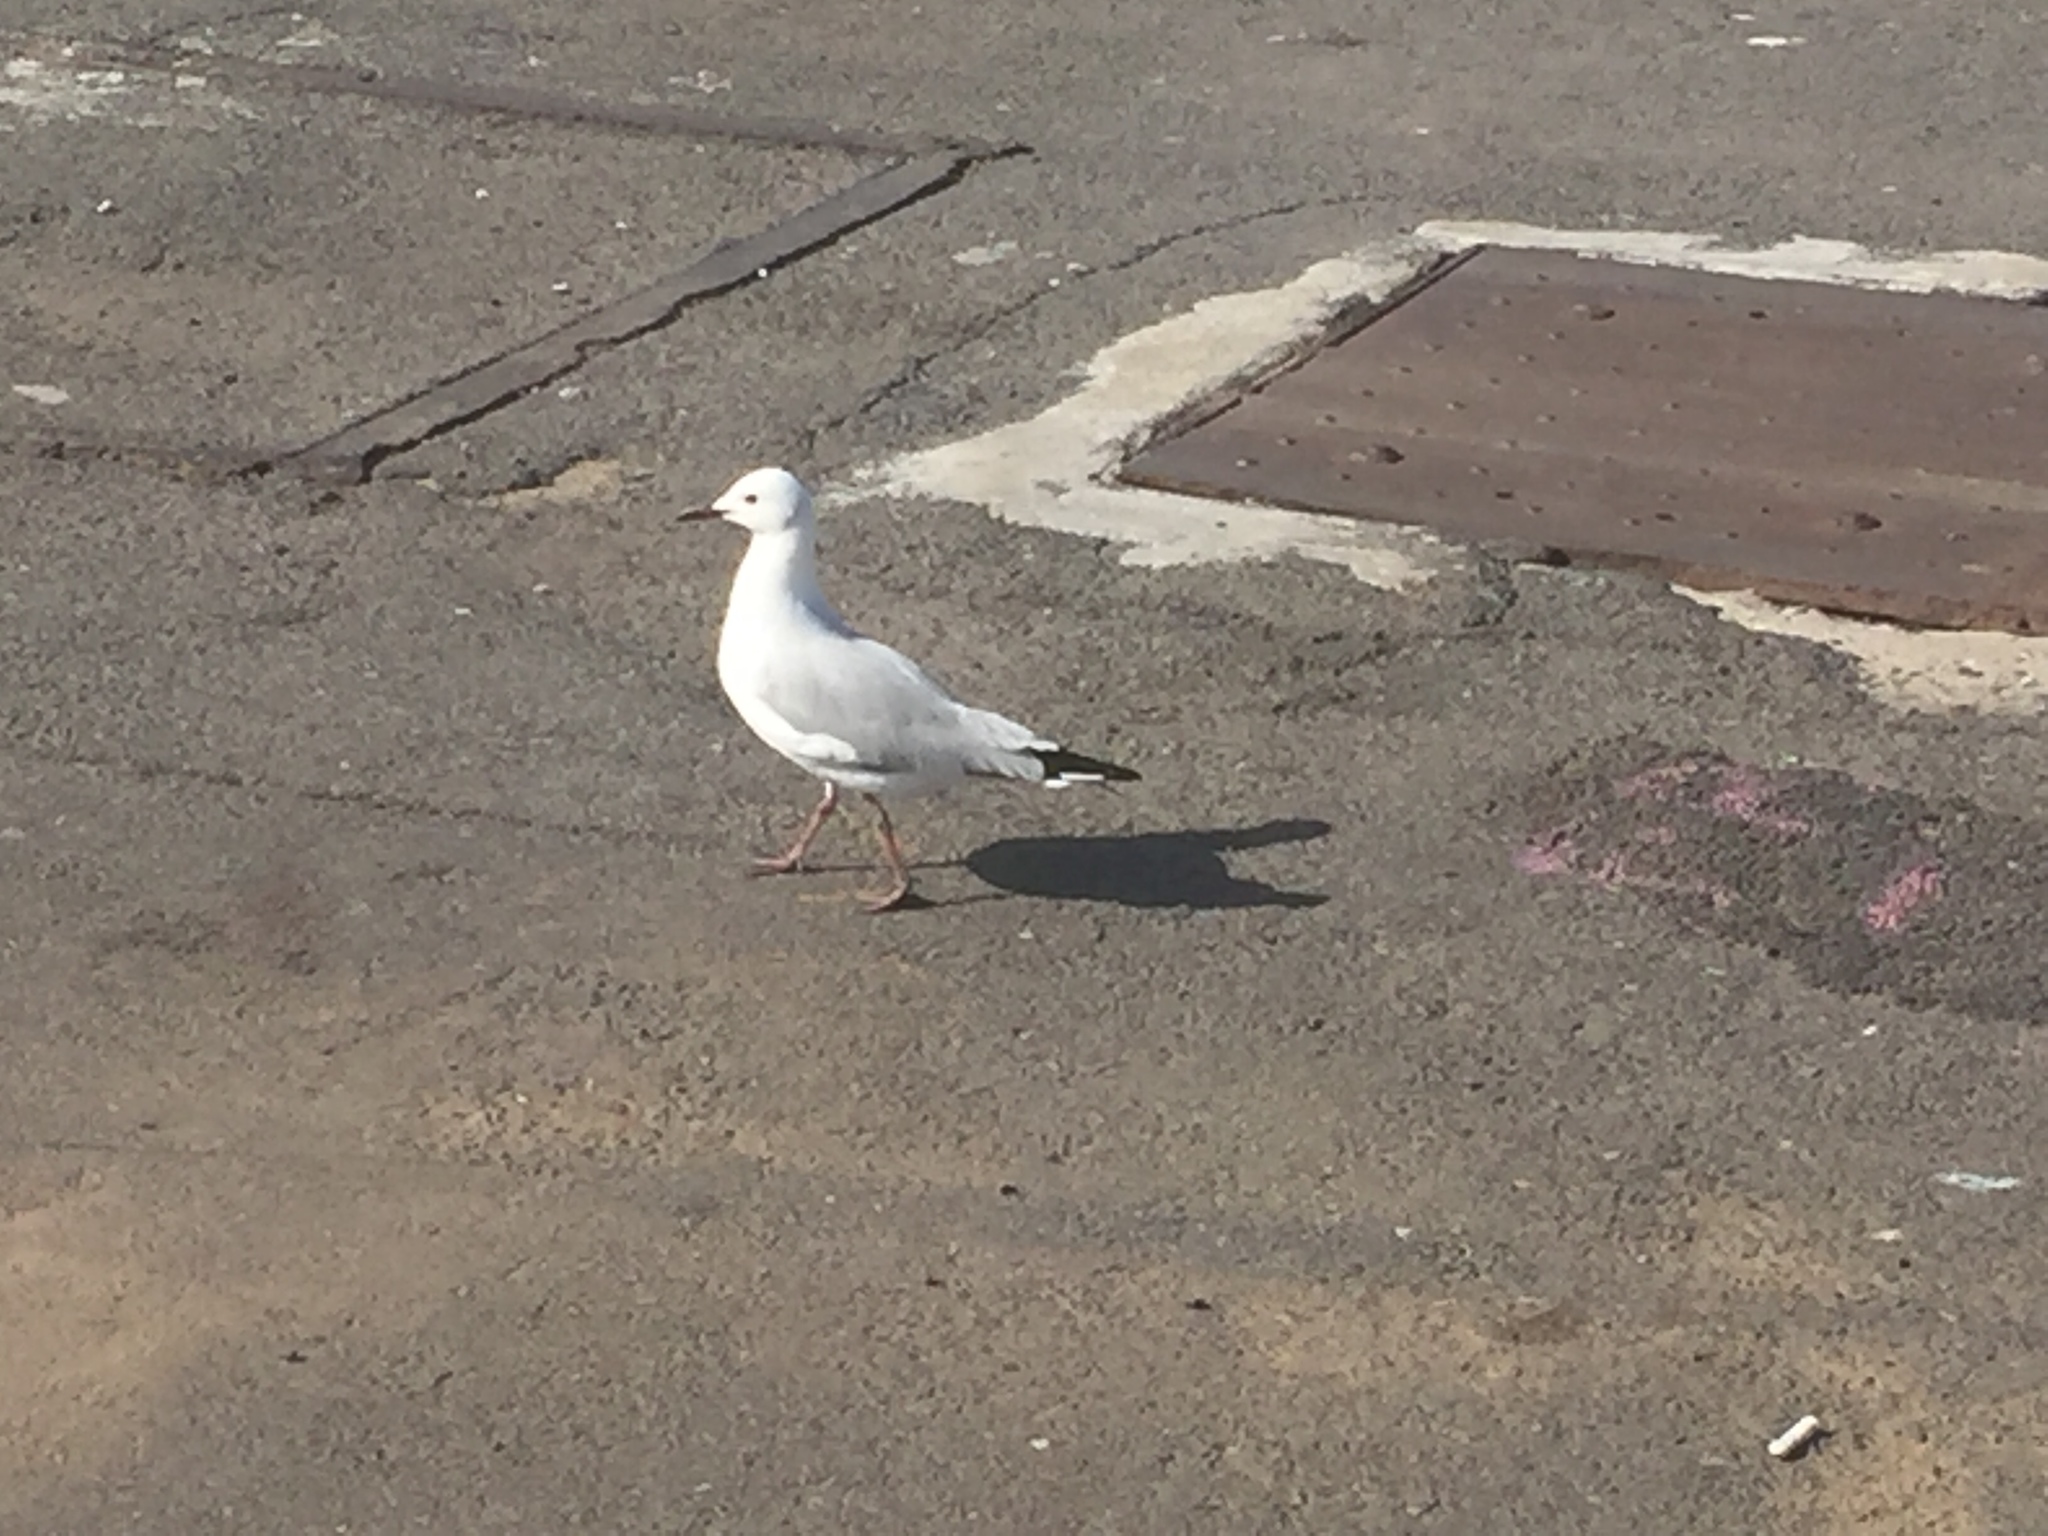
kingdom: Animalia
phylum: Chordata
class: Aves
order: Charadriiformes
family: Laridae
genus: Chroicocephalus
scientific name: Chroicocephalus hartlaubii
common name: Hartlaub's gull
